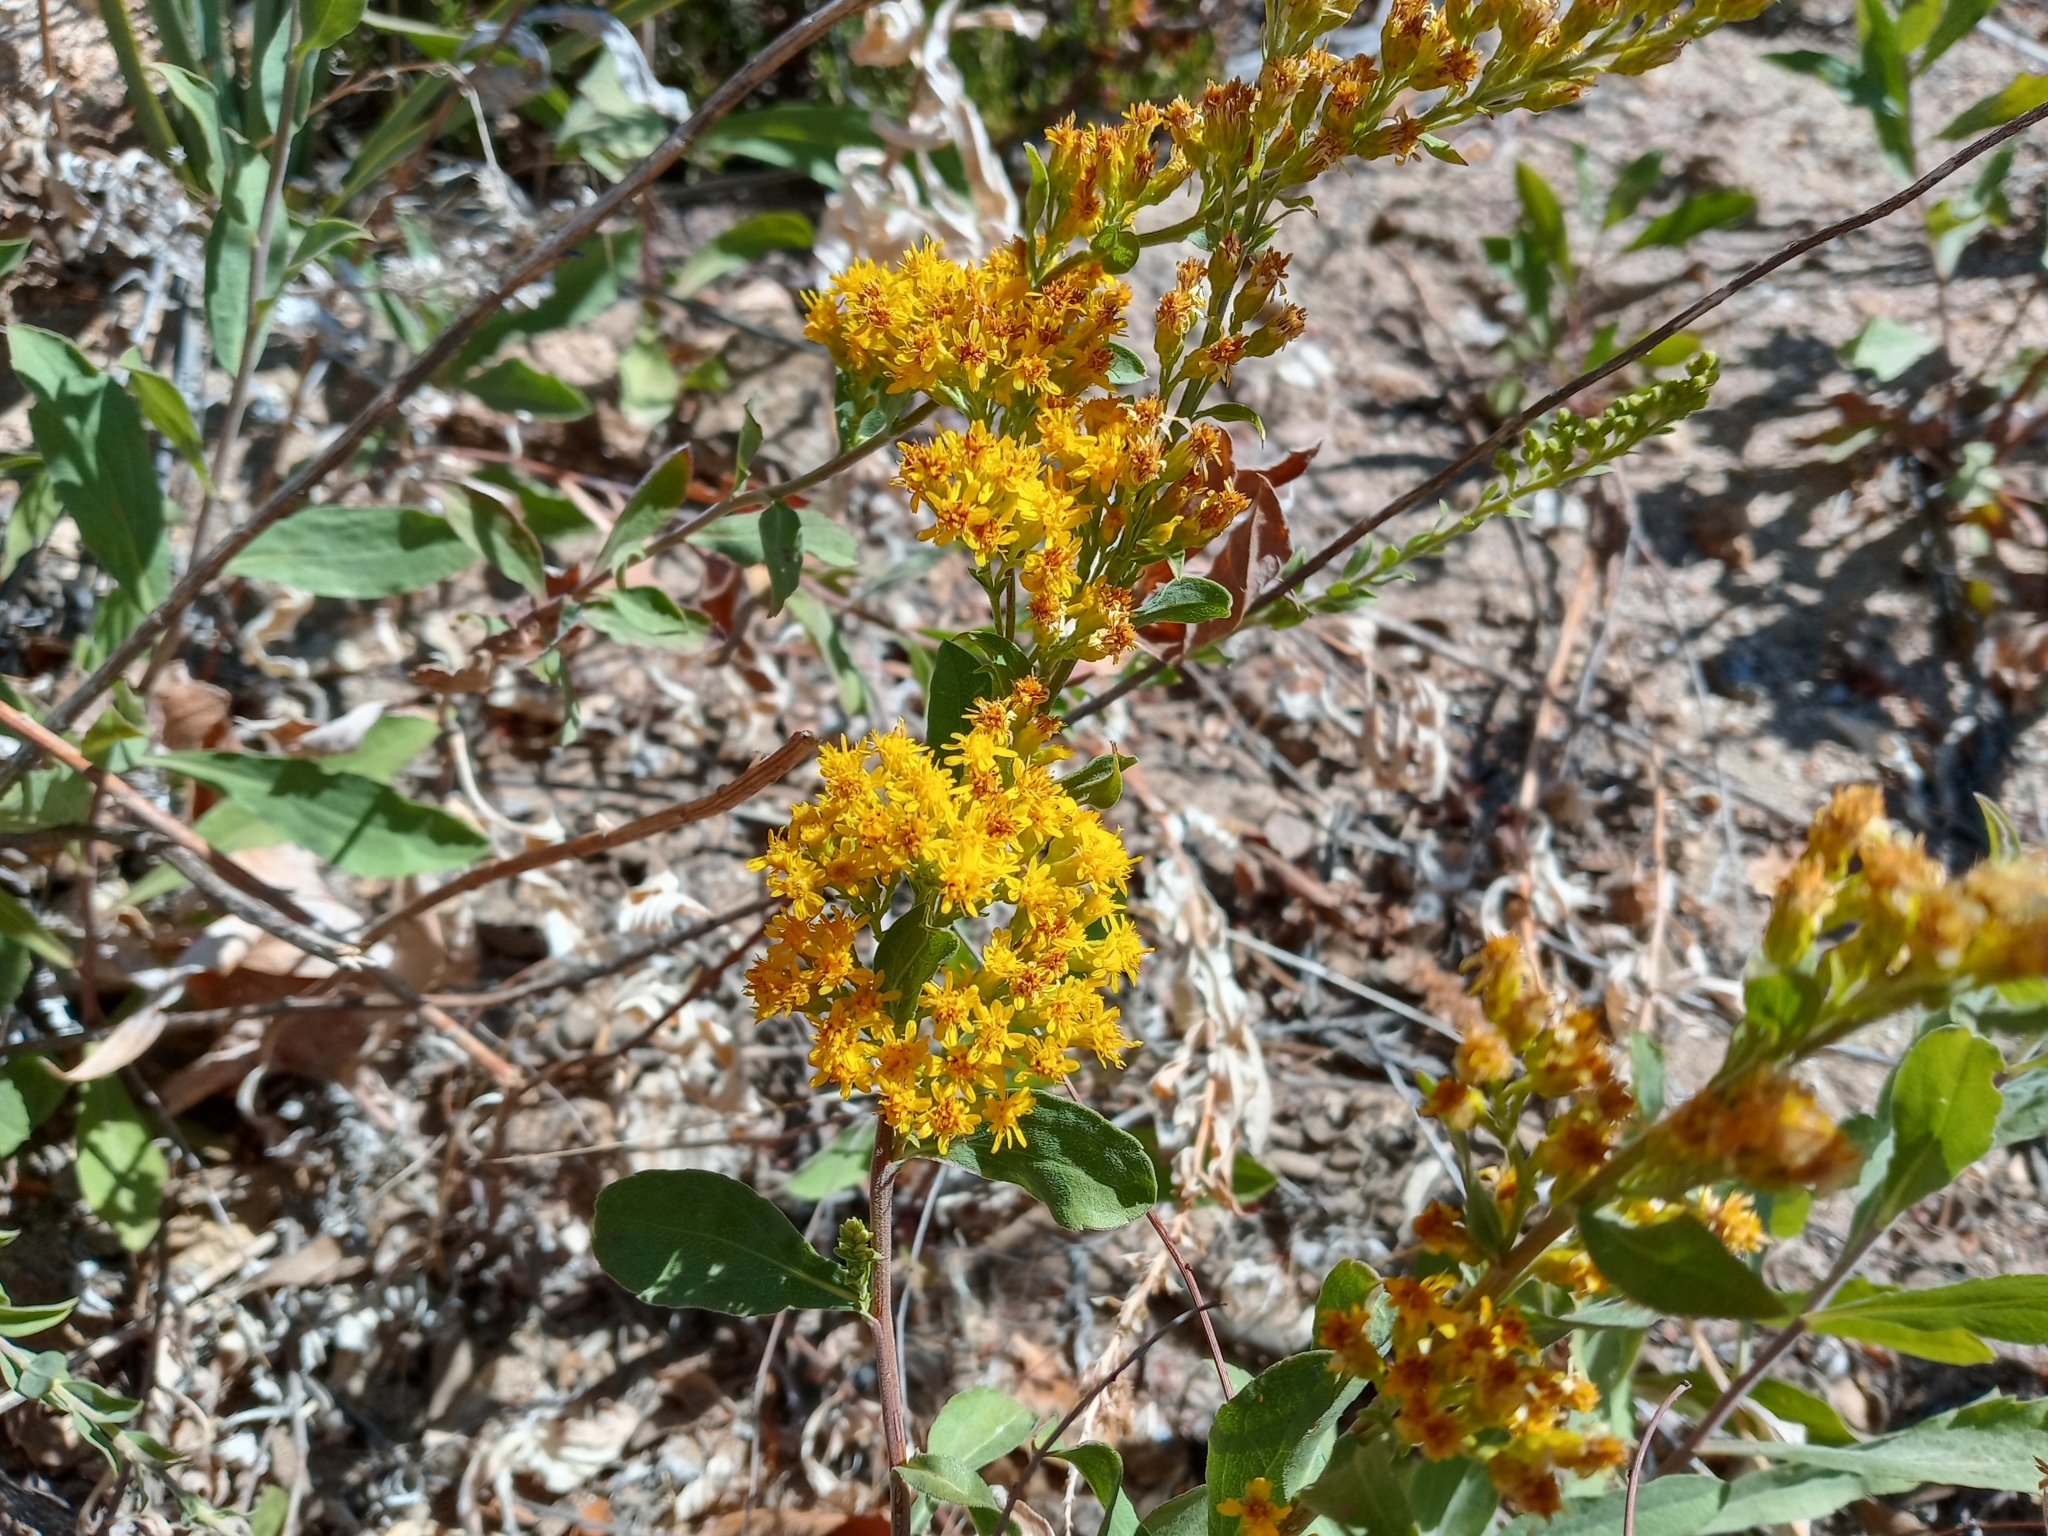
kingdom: Plantae
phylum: Tracheophyta
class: Magnoliopsida
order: Asterales
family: Asteraceae
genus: Solidago
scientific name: Solidago californica
